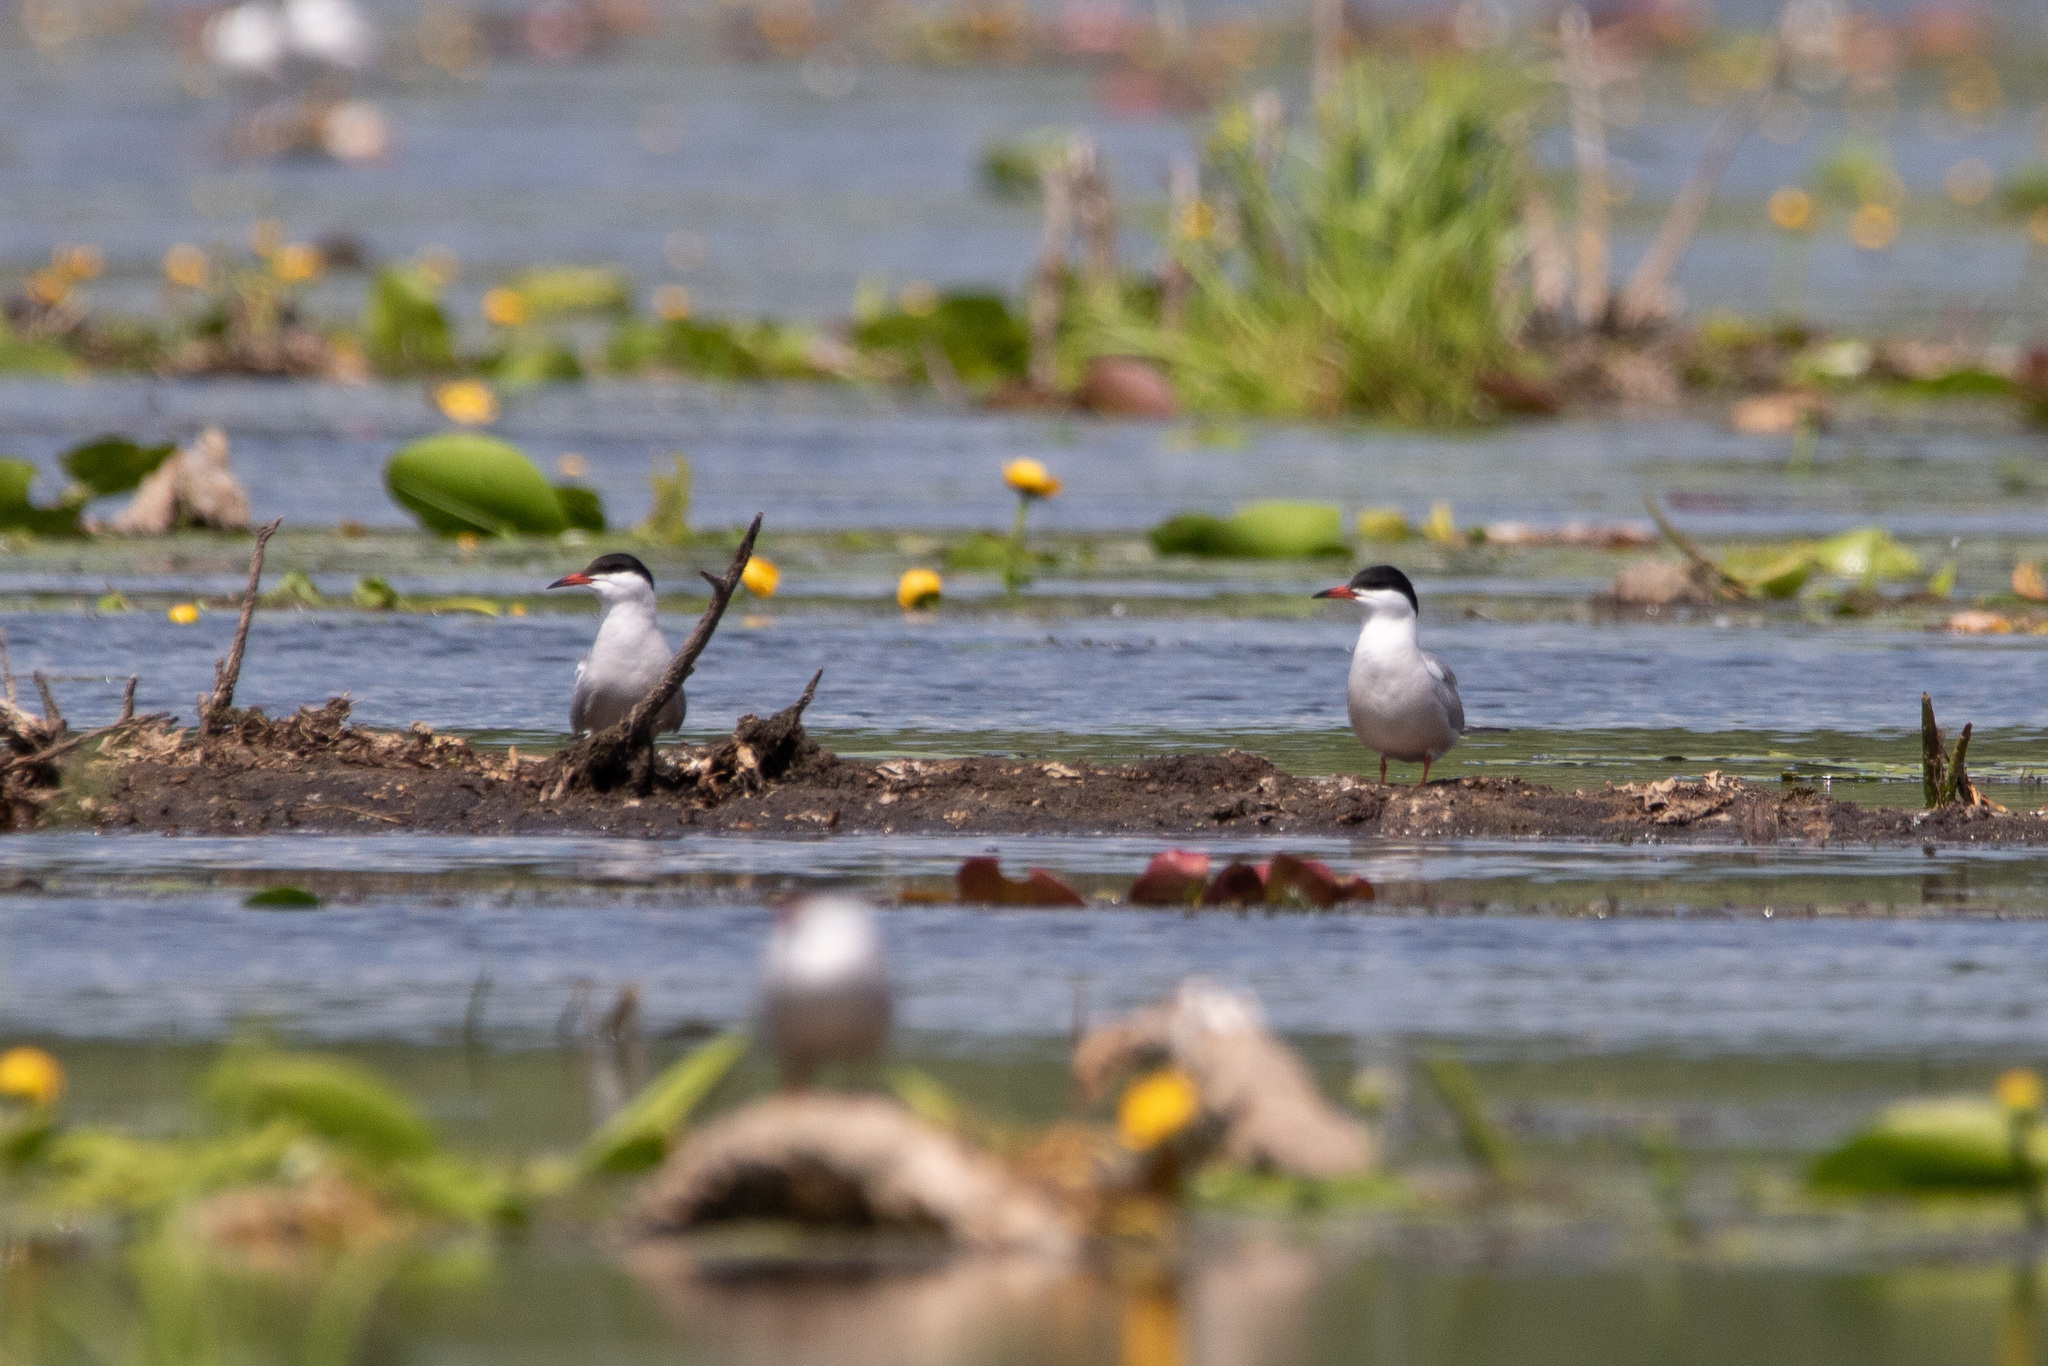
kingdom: Animalia
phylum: Chordata
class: Aves
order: Charadriiformes
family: Laridae
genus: Sterna
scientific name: Sterna hirundo
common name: Common tern
